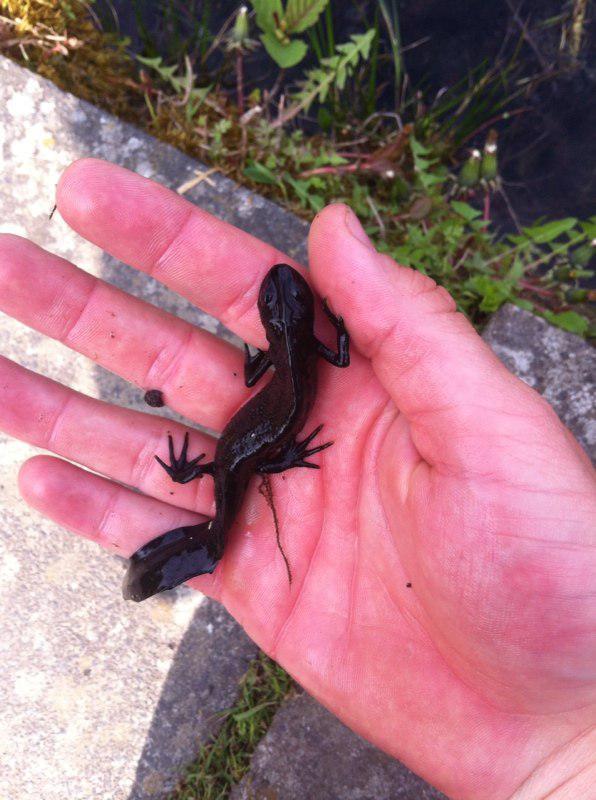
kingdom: Animalia
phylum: Chordata
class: Amphibia
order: Caudata
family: Salamandridae
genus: Triturus
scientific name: Triturus cristatus
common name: Crested newt
